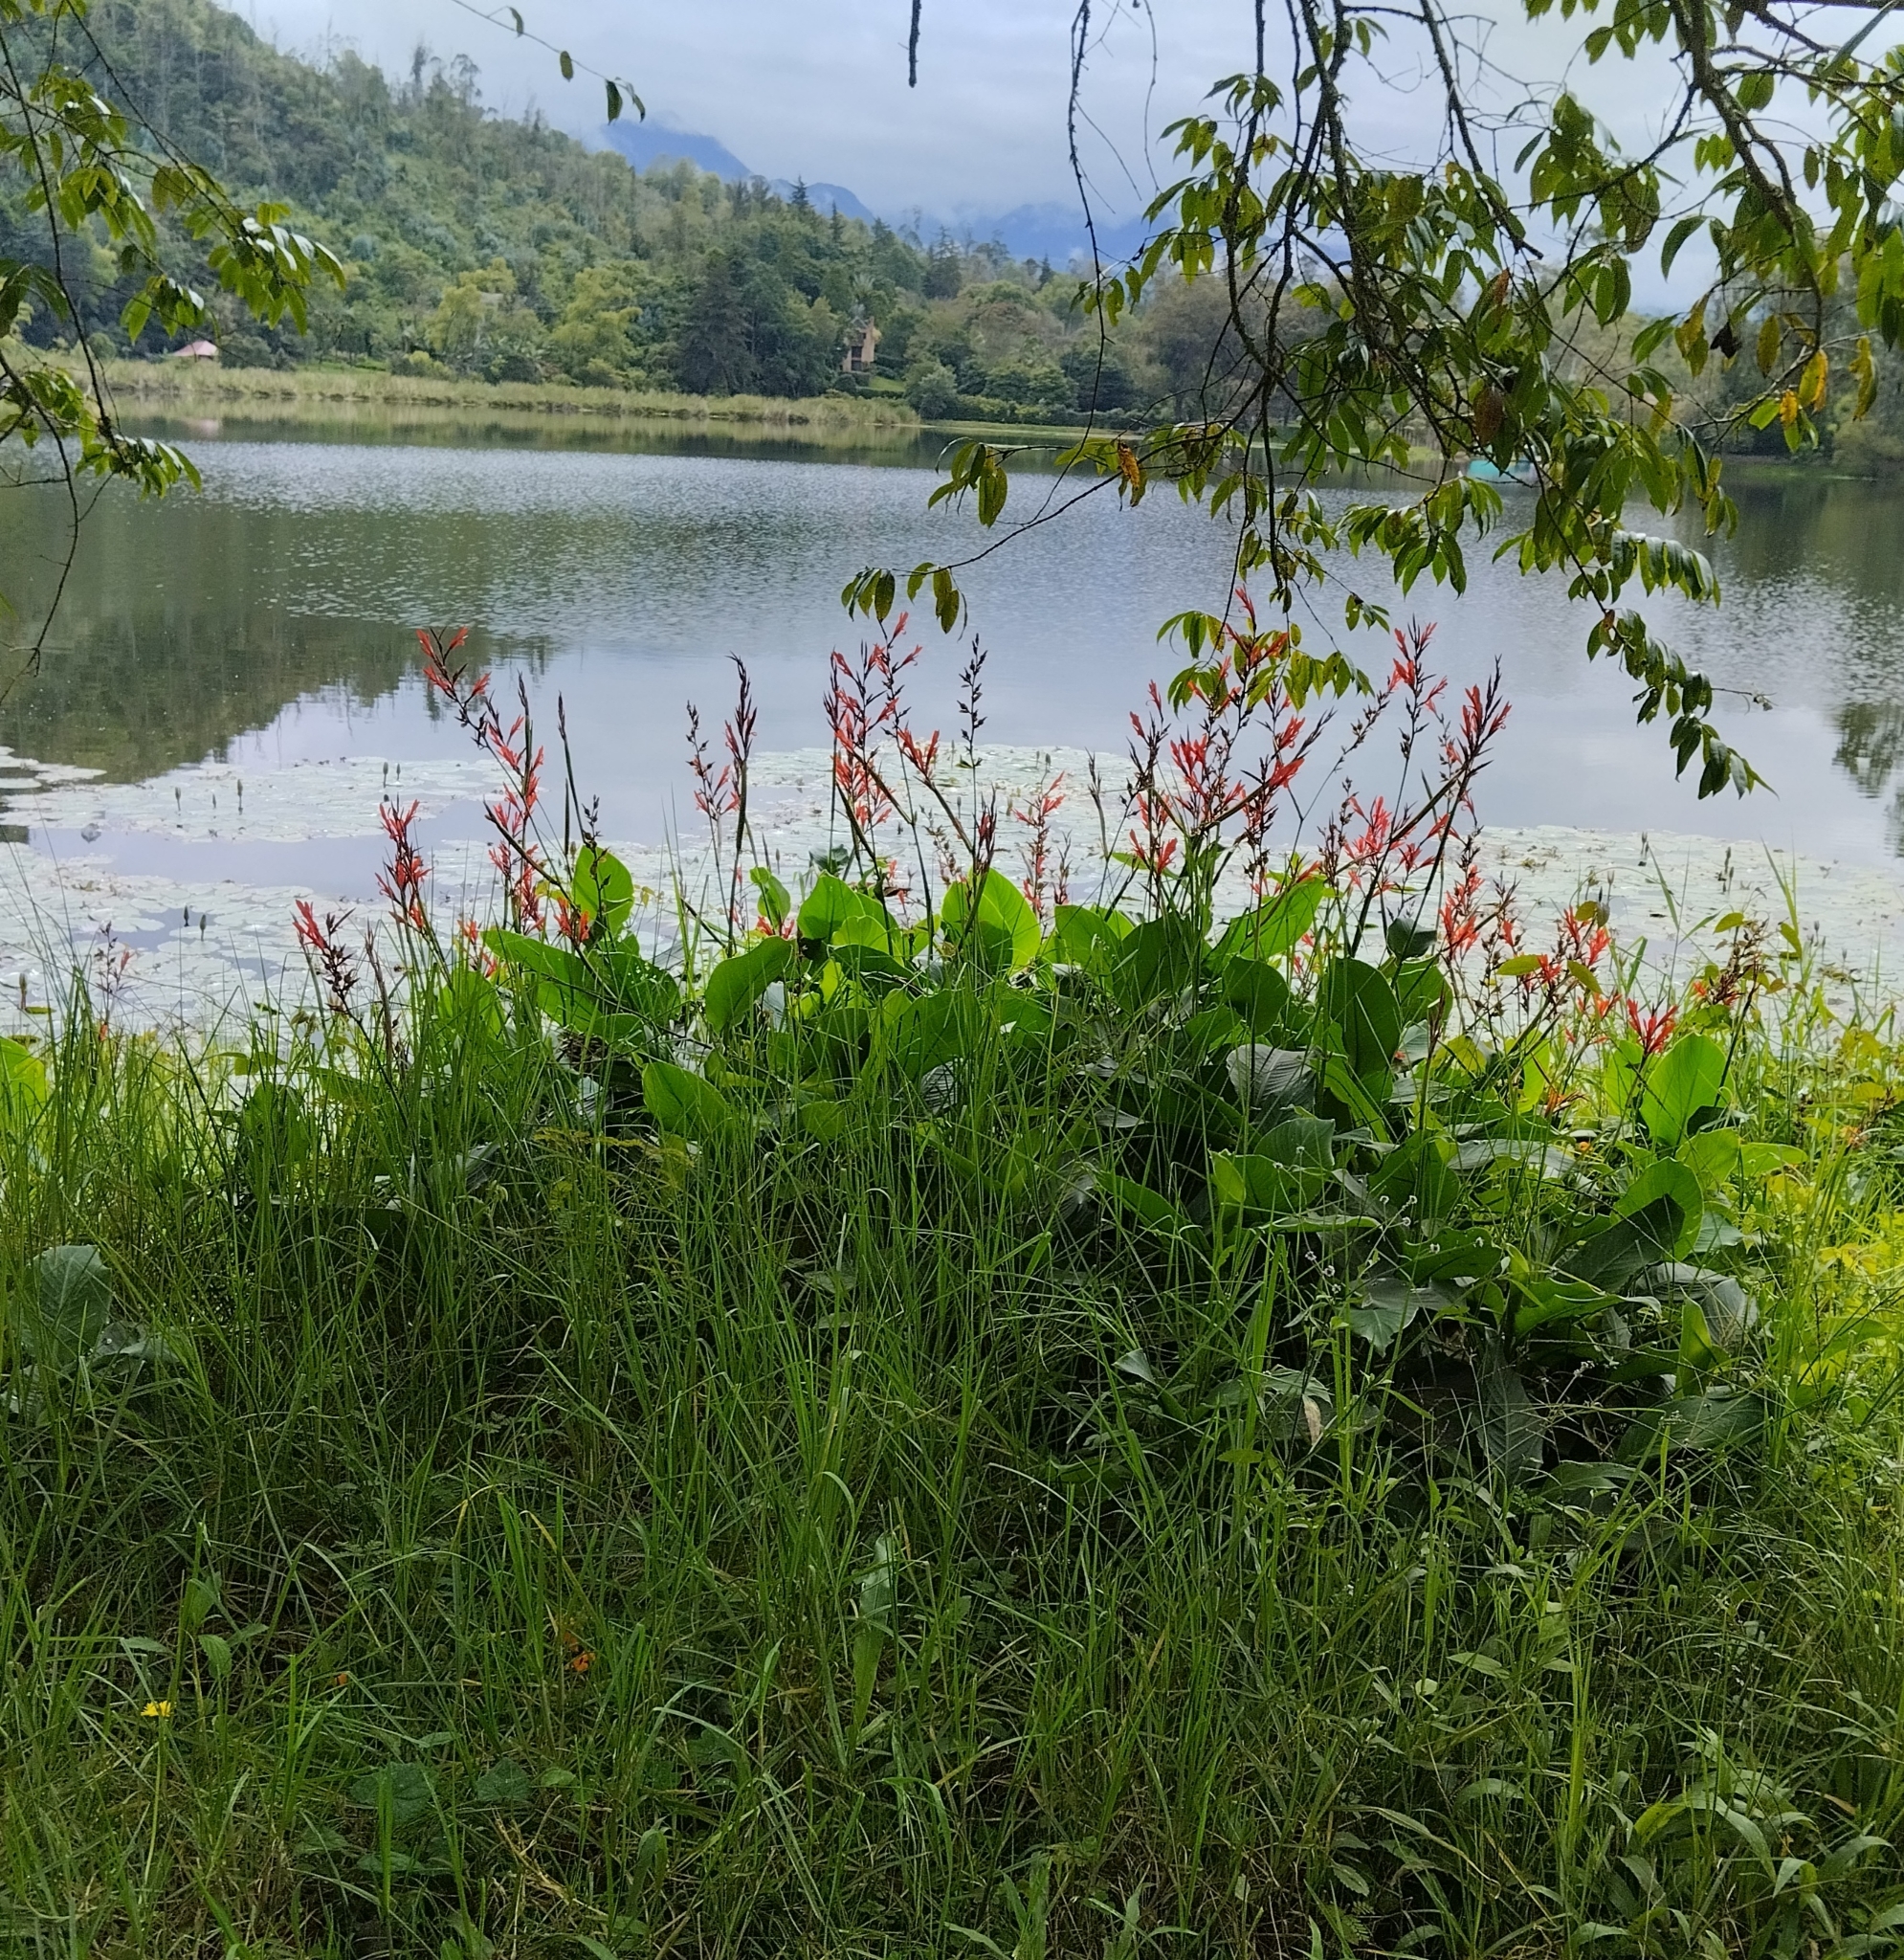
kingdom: Plantae
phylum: Tracheophyta
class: Liliopsida
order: Zingiberales
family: Cannaceae
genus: Canna
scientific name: Canna indica
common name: Indian shot
